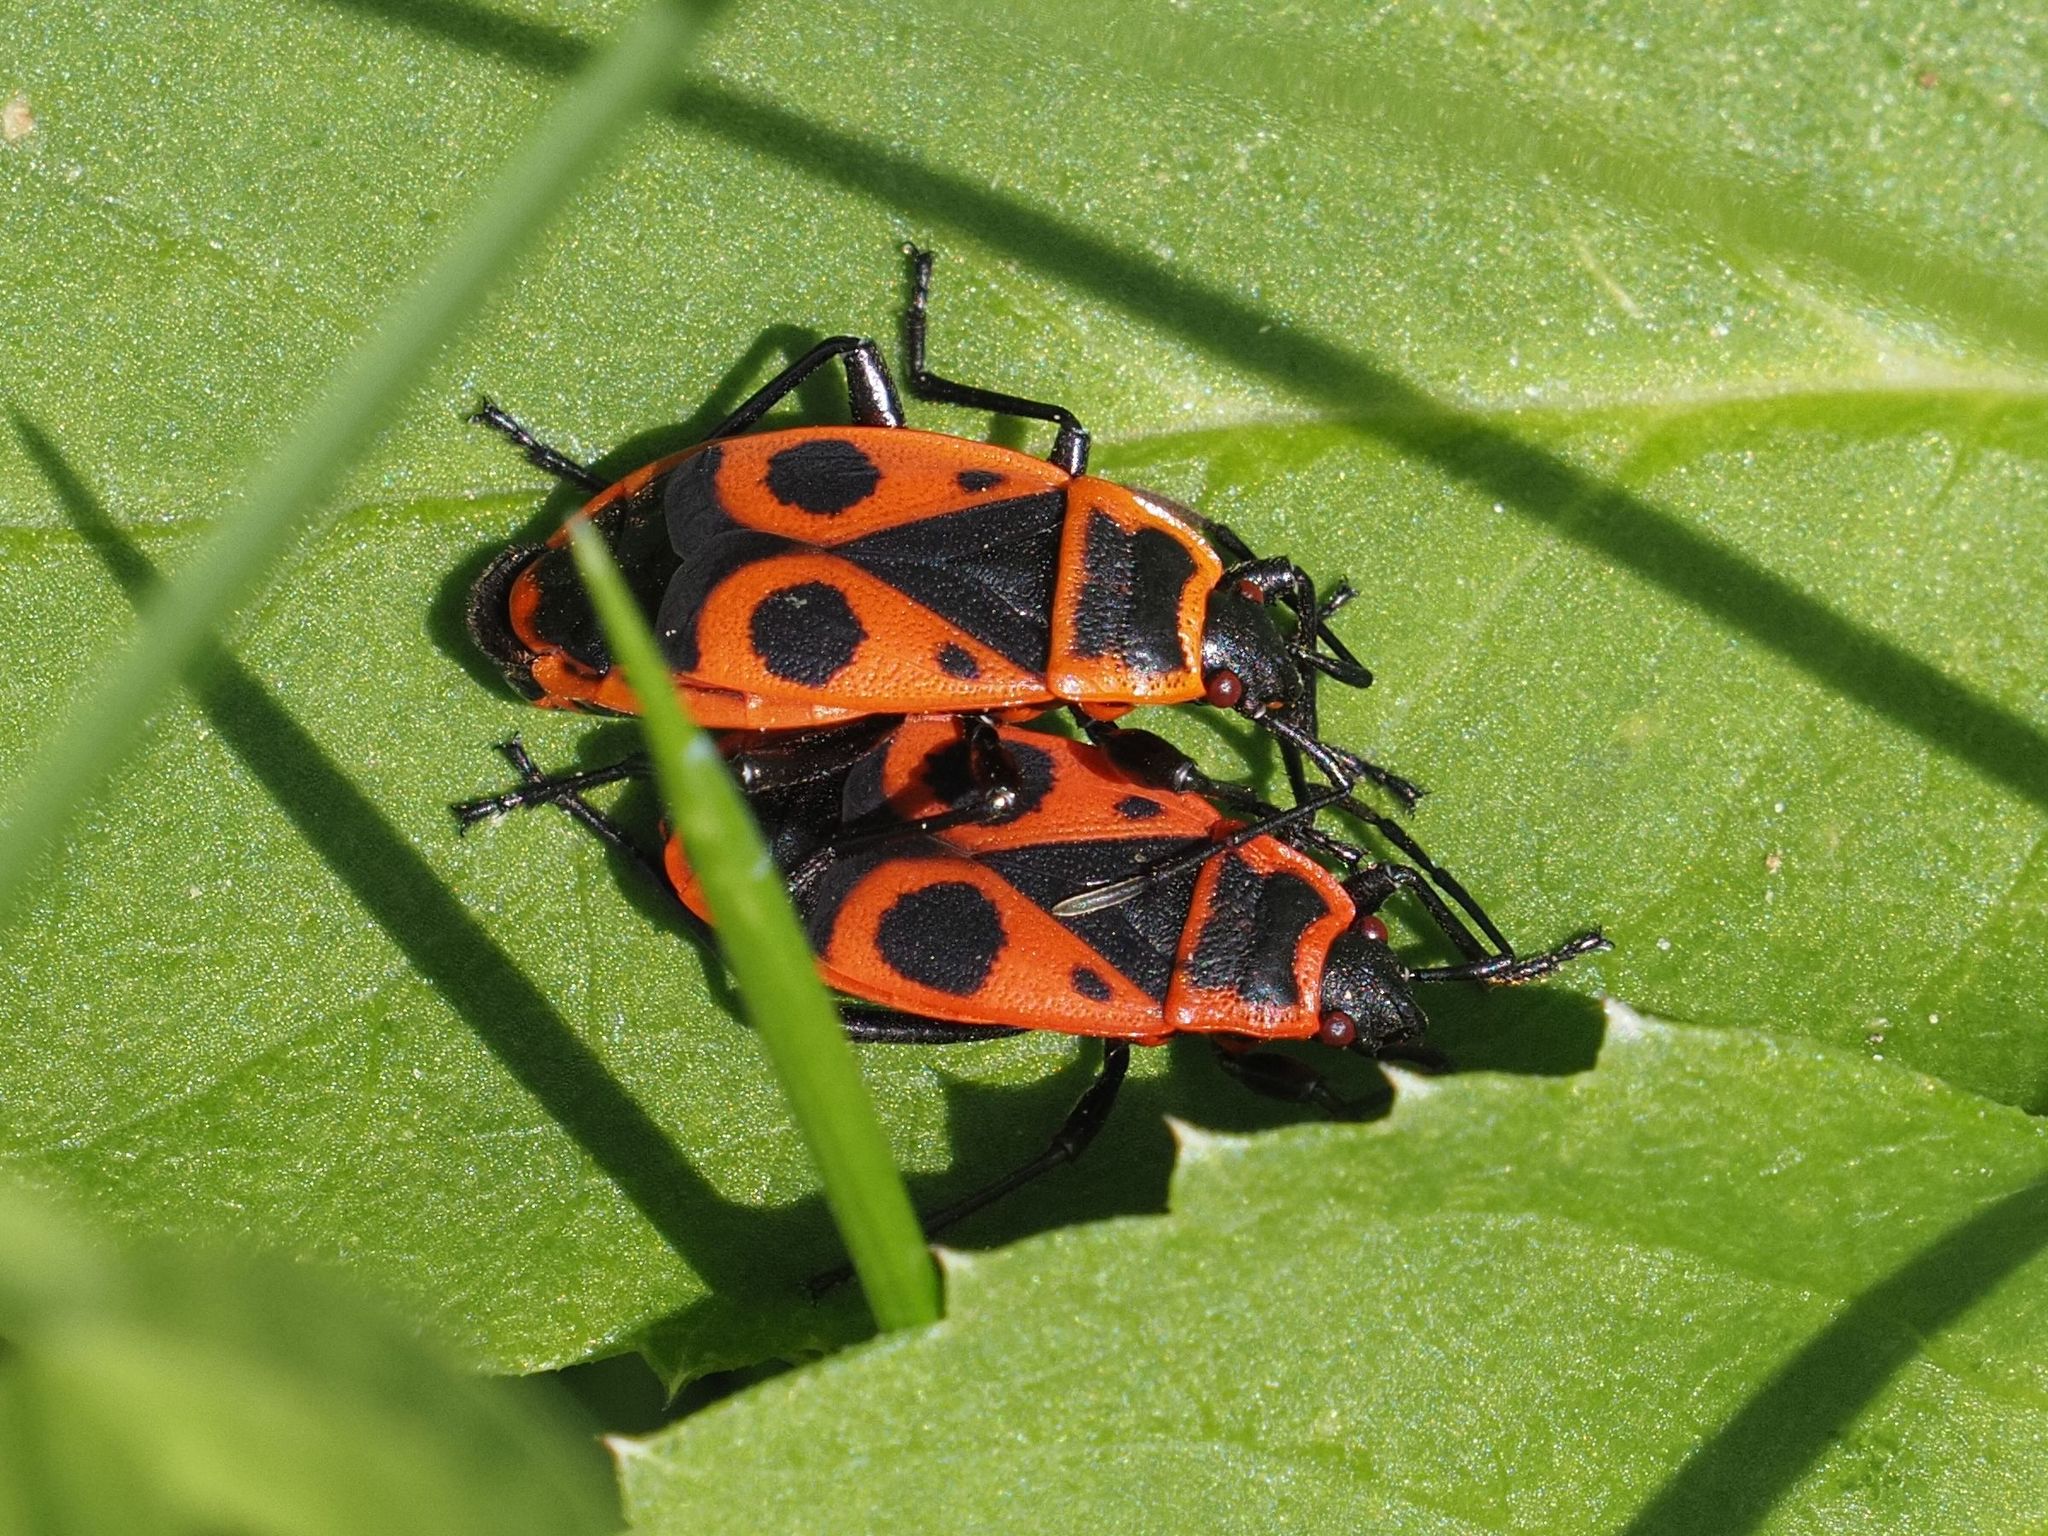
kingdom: Animalia
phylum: Arthropoda
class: Insecta
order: Hemiptera
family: Pyrrhocoridae
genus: Pyrrhocoris
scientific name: Pyrrhocoris apterus
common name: Firebug
